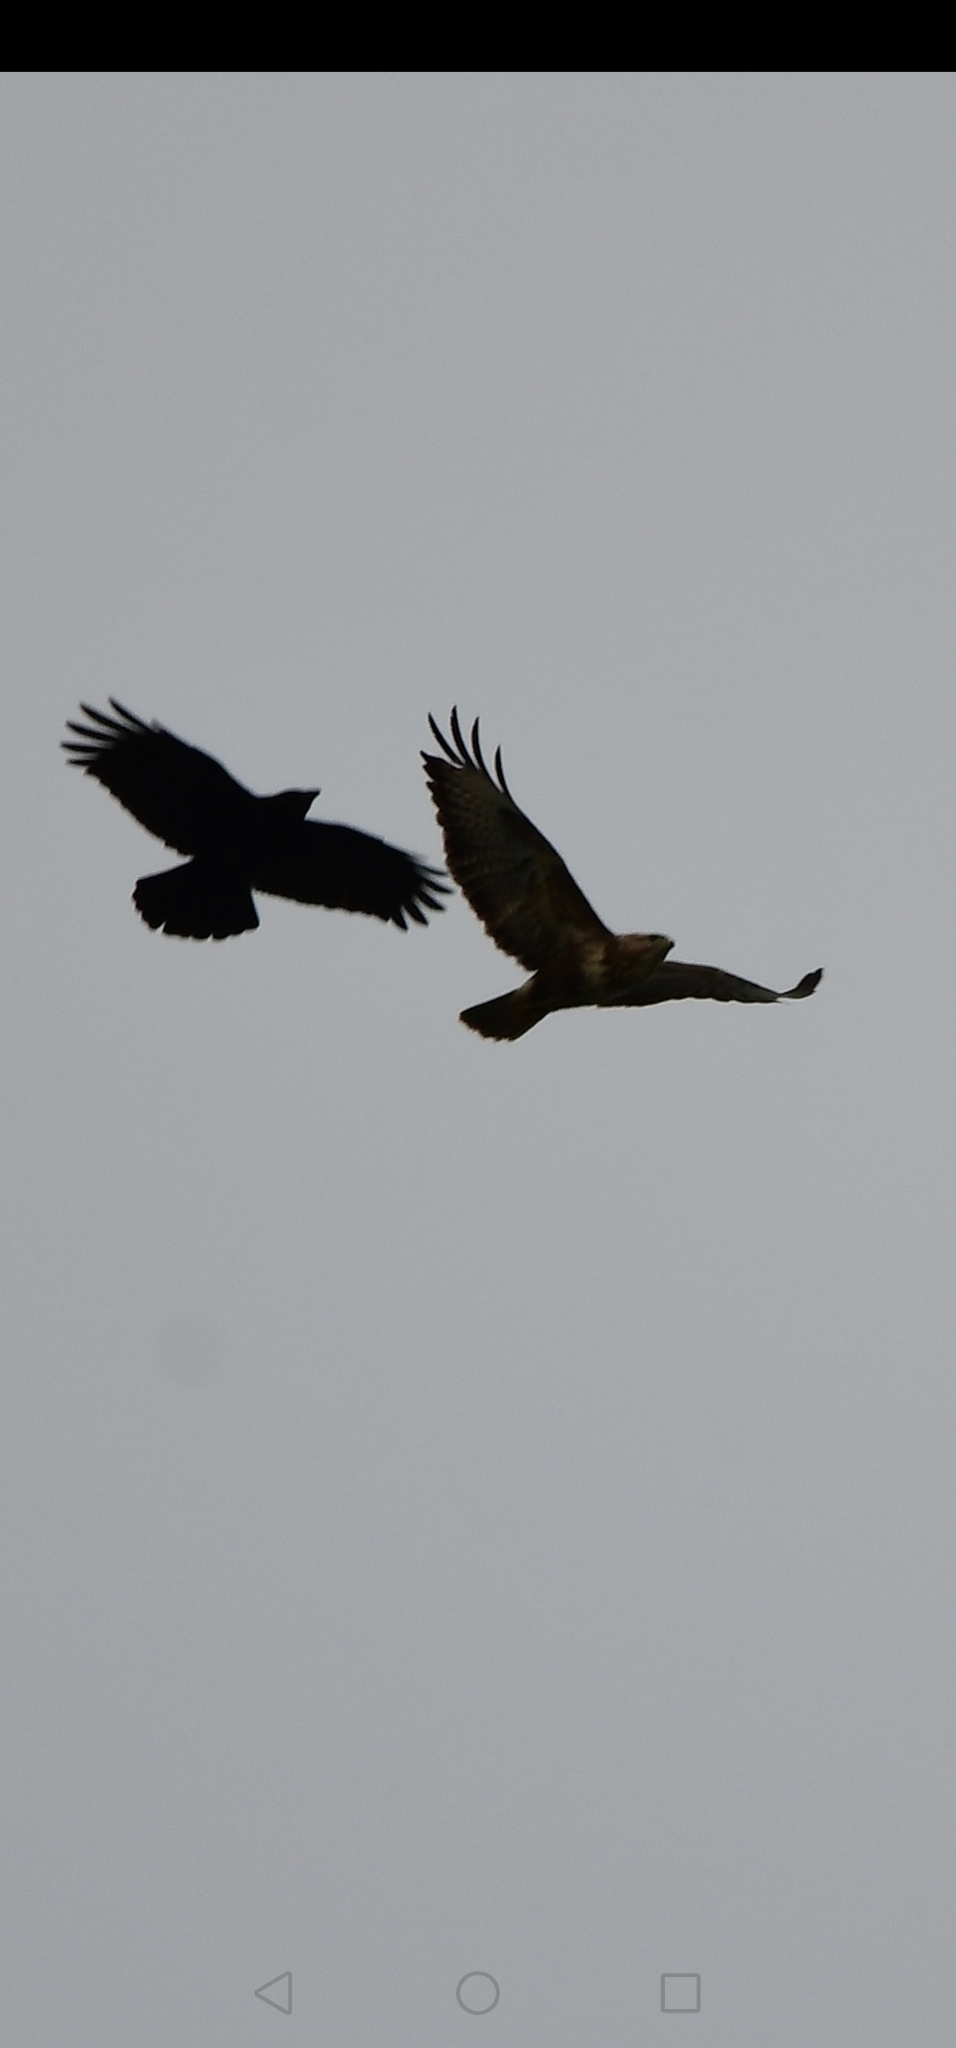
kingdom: Animalia
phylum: Chordata
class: Aves
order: Accipitriformes
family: Accipitridae
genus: Buteo
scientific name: Buteo buteo
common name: Common buzzard
